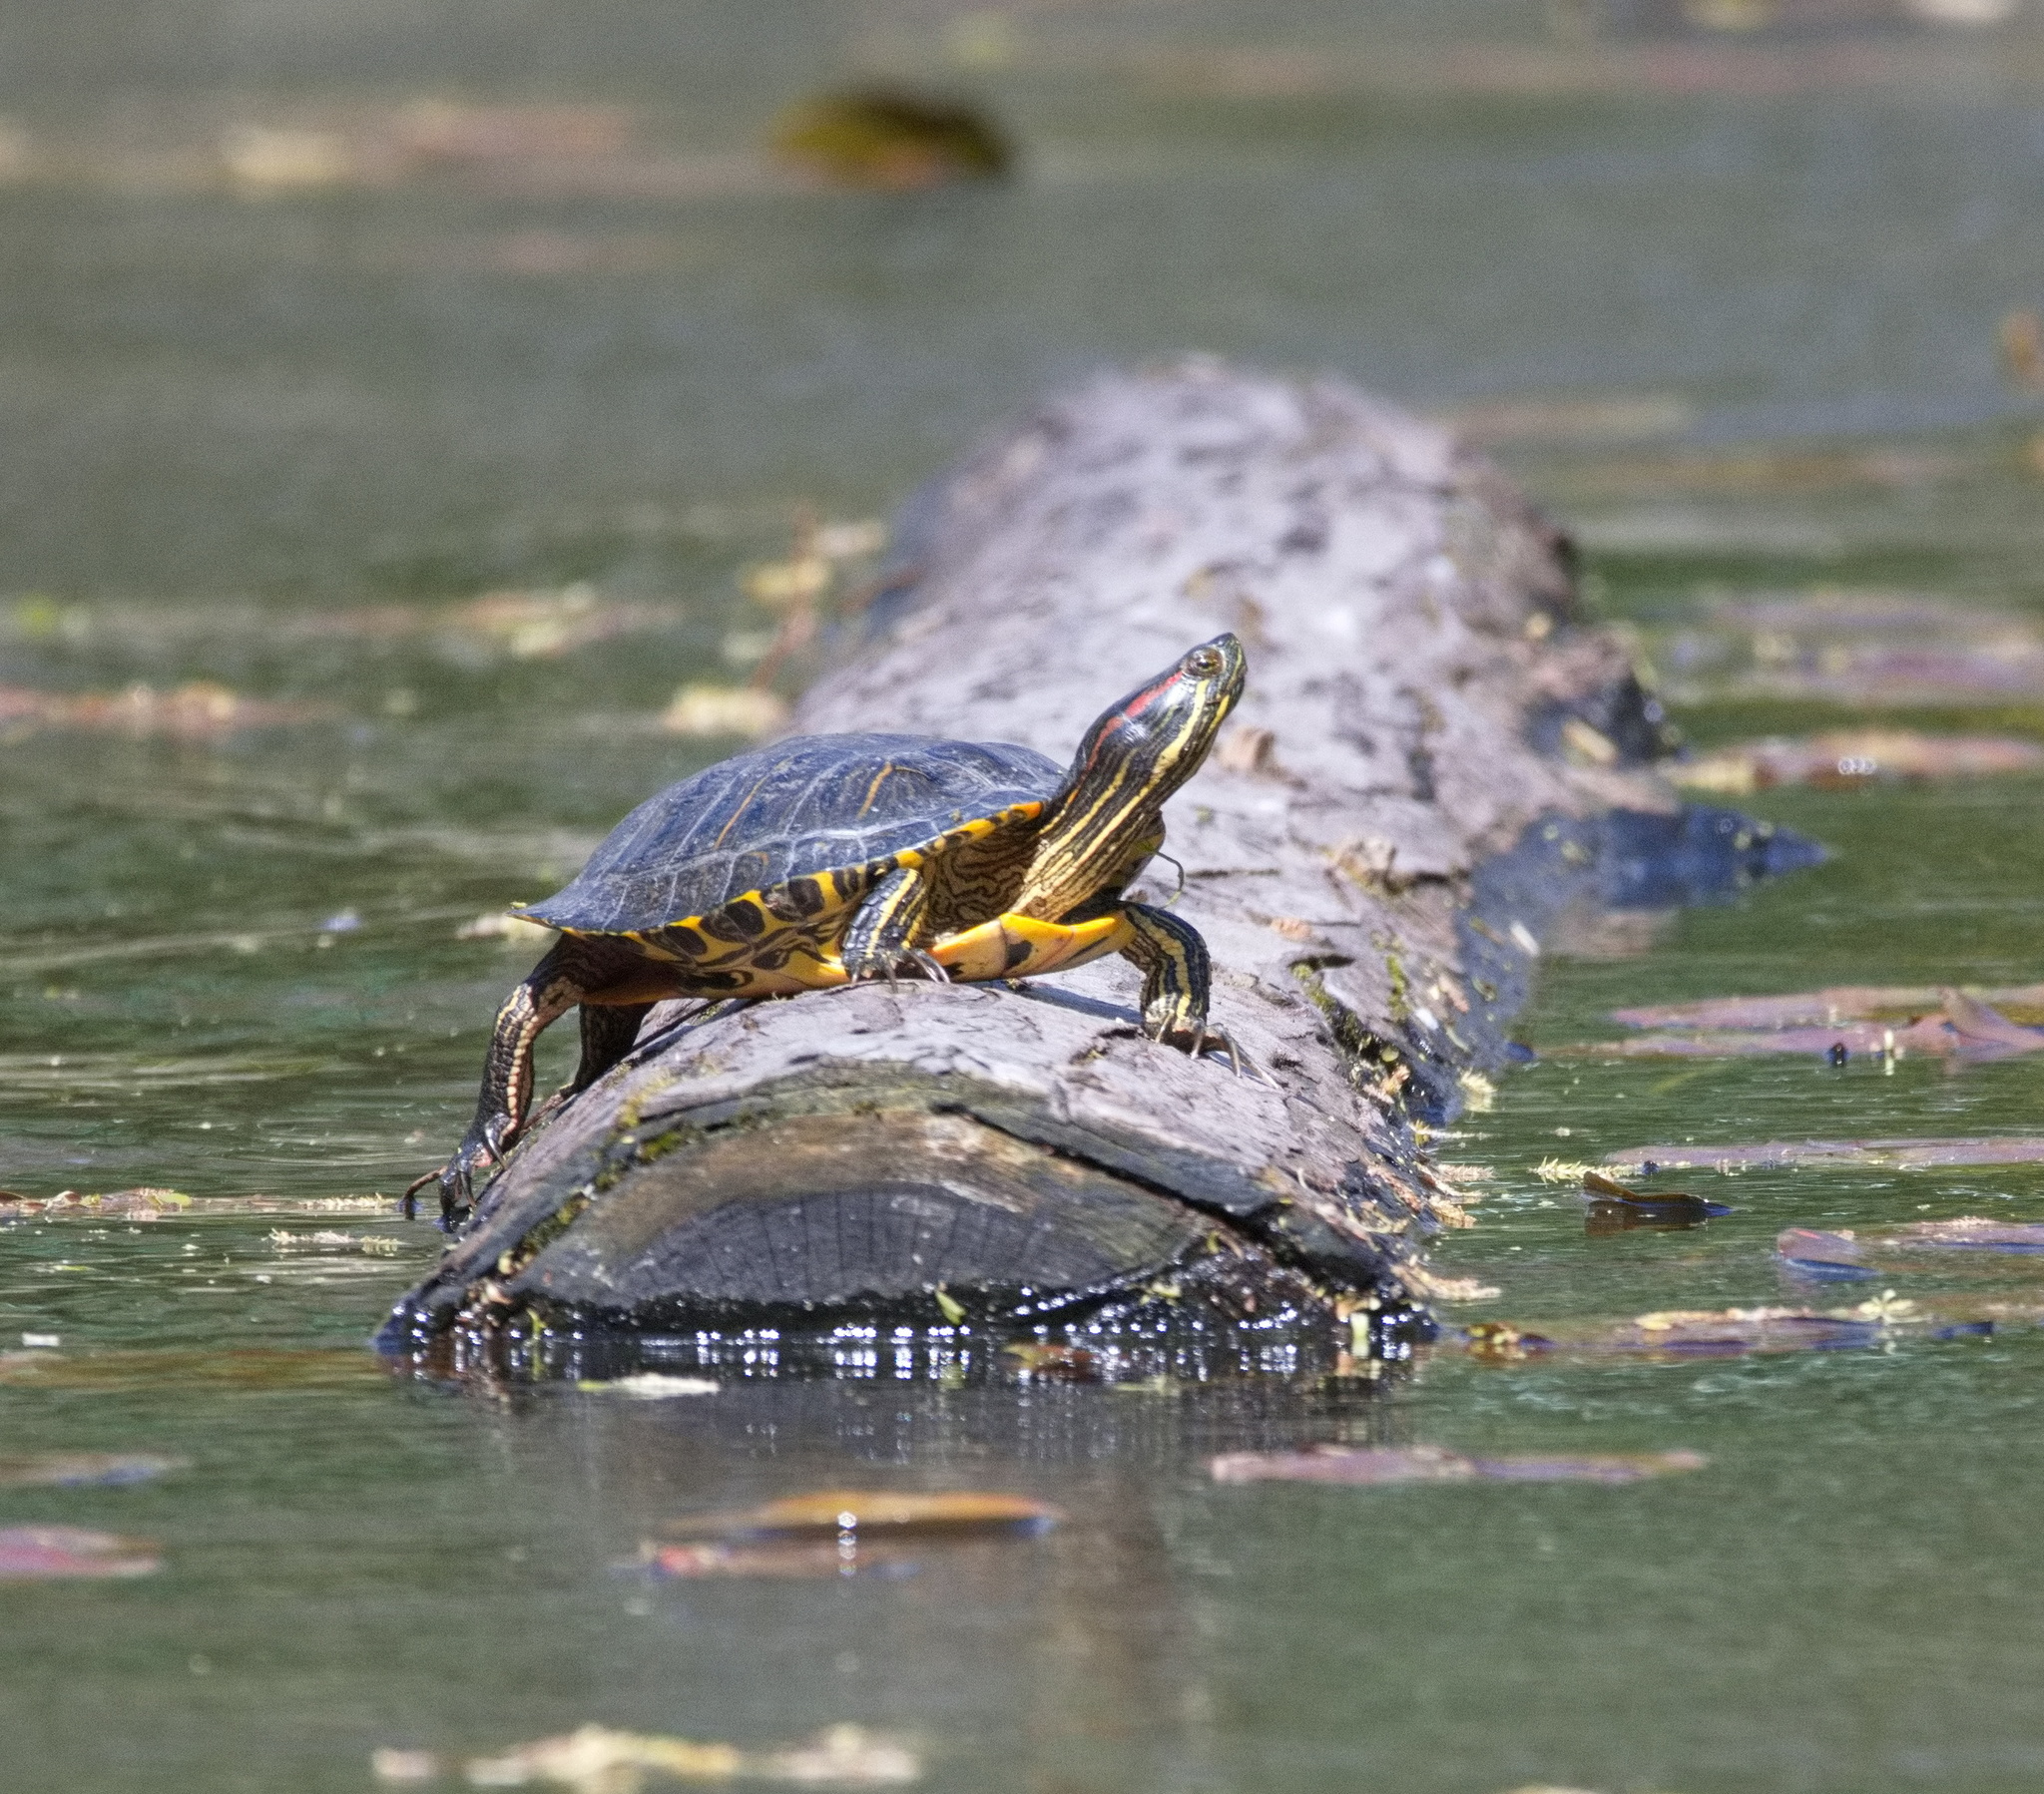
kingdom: Animalia
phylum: Chordata
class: Testudines
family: Emydidae
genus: Trachemys
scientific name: Trachemys scripta
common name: Slider
